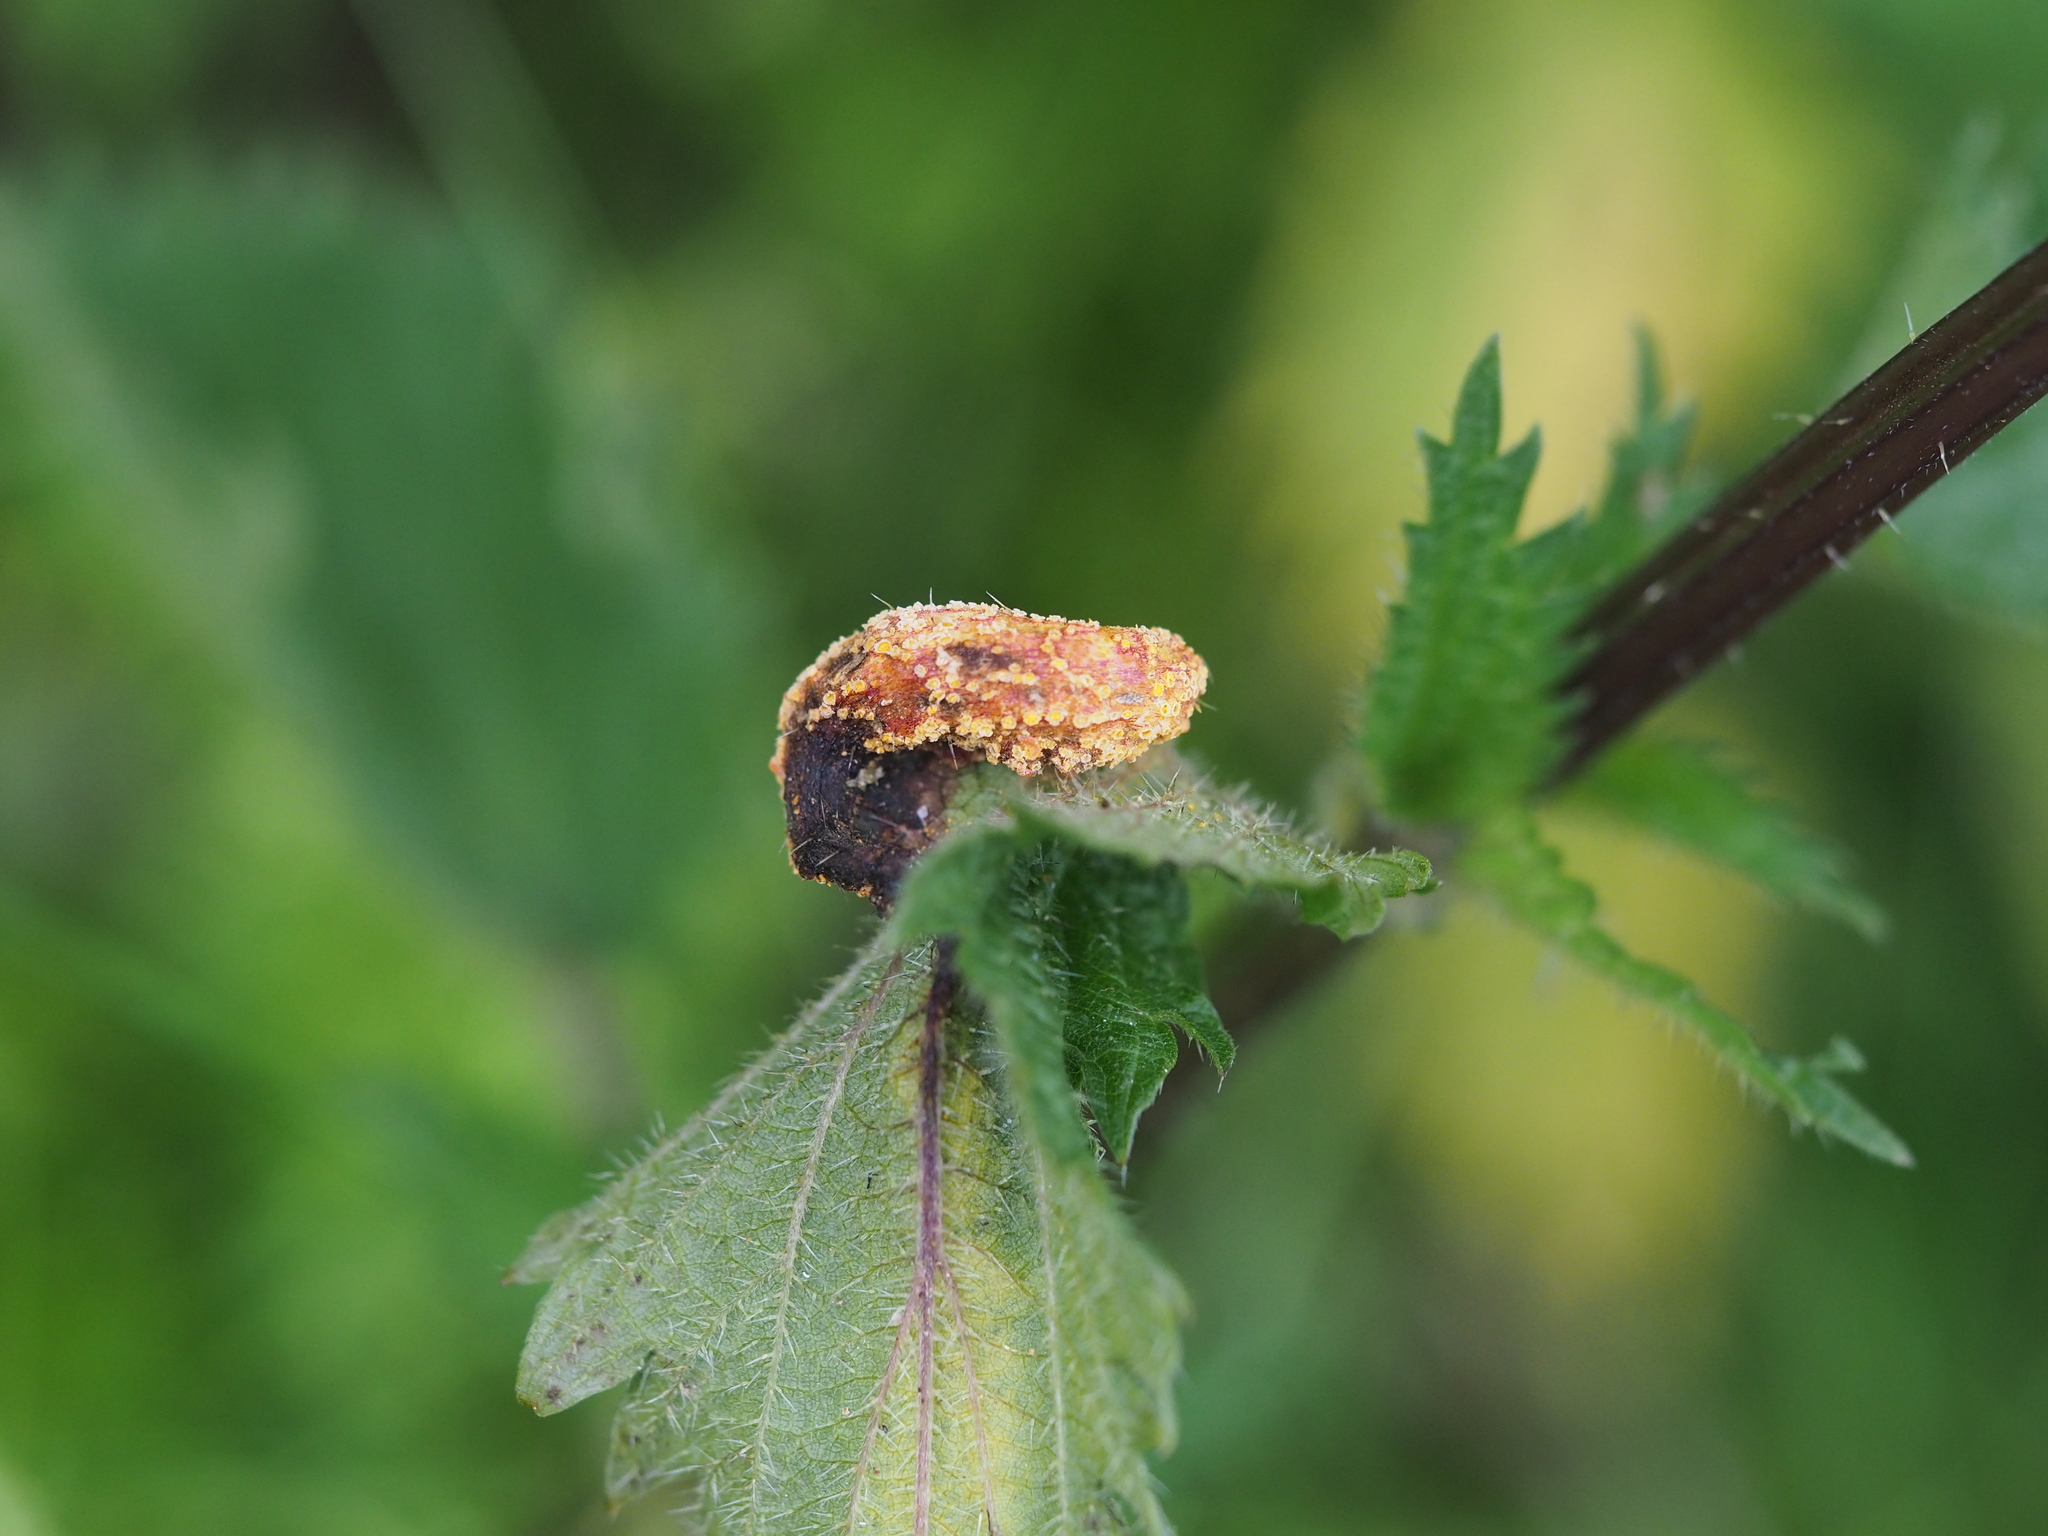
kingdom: Fungi
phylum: Basidiomycota
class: Pucciniomycetes
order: Pucciniales
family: Pucciniaceae
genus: Puccinia
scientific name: Puccinia urticata
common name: Nettle clustercup rust fungus
